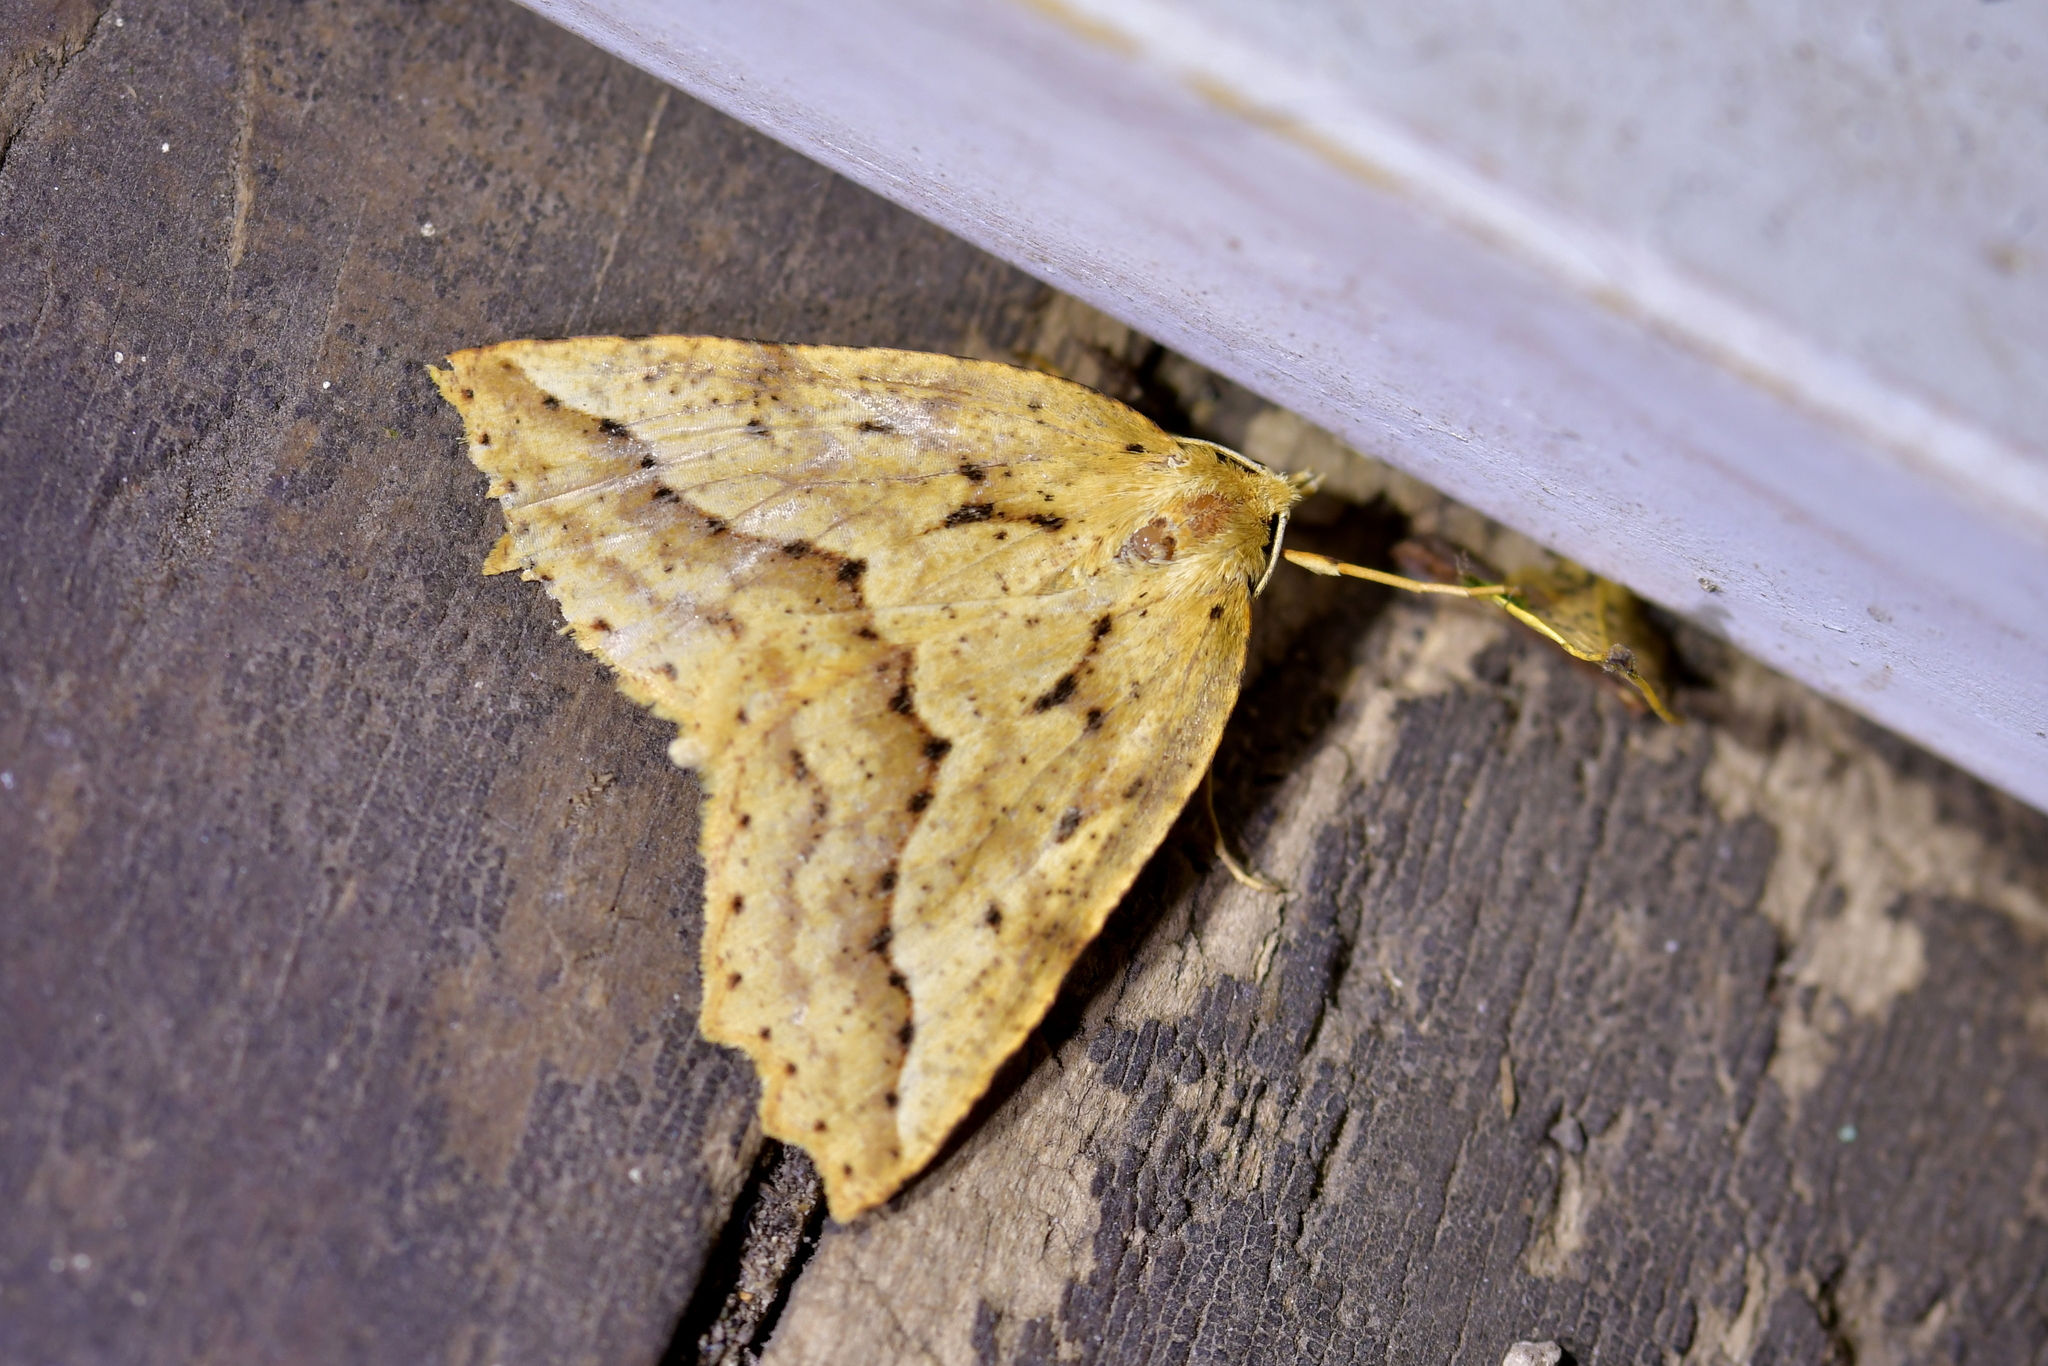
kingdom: Animalia
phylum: Arthropoda
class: Insecta
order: Lepidoptera
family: Geometridae
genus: Ischalis
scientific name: Ischalis variabilis
